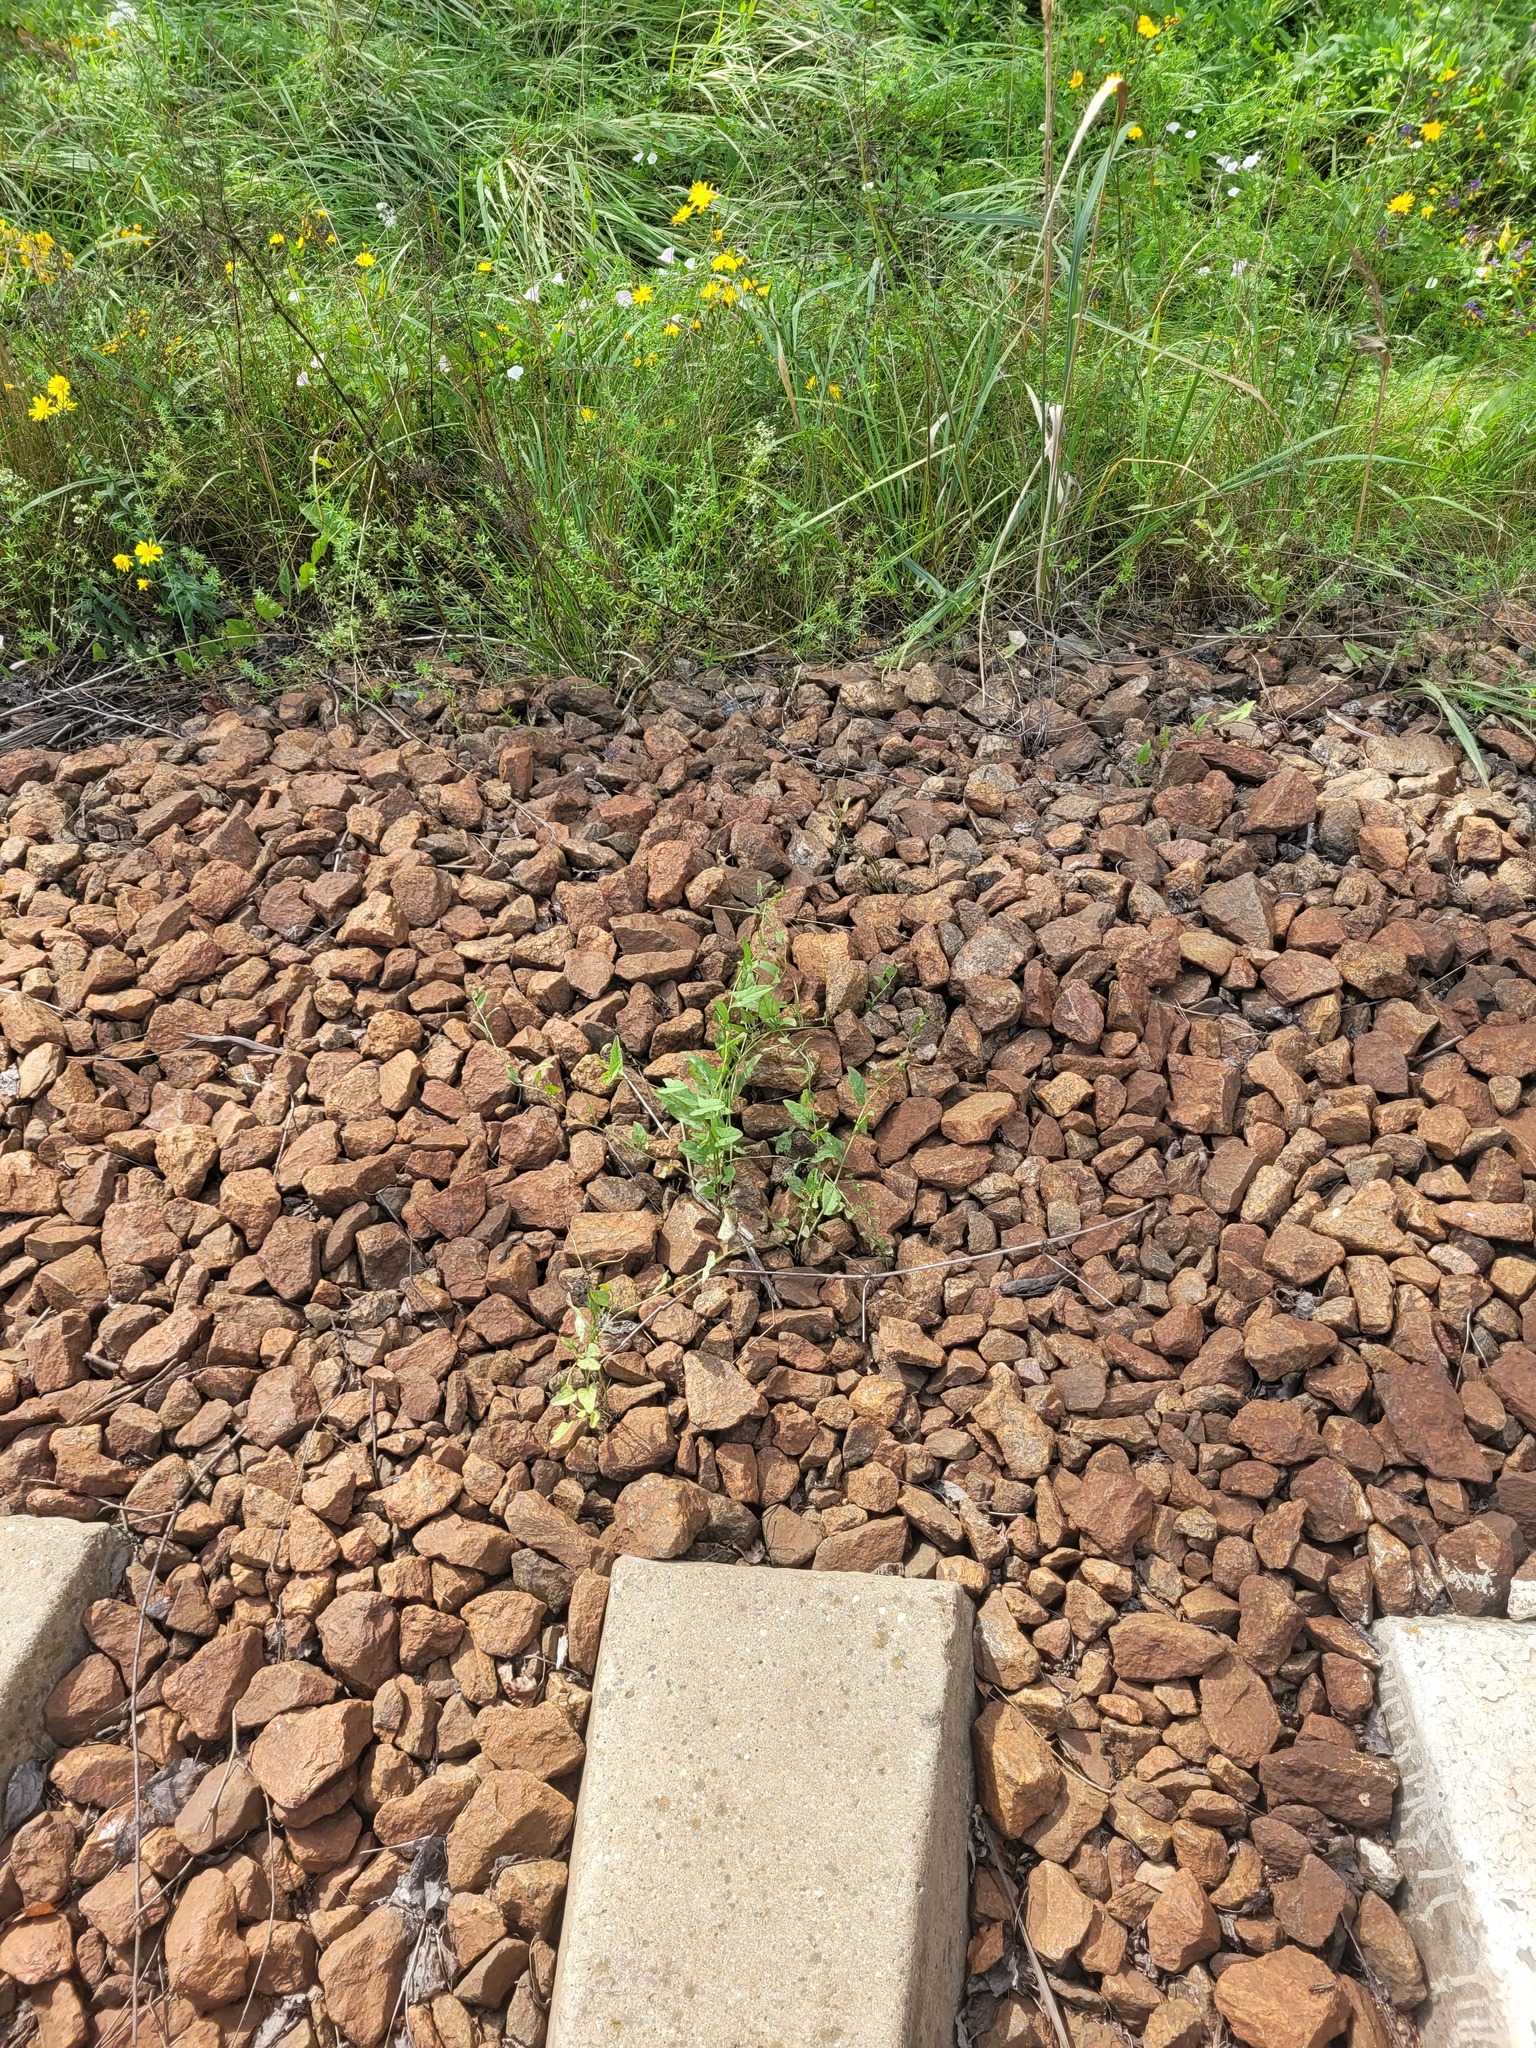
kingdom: Plantae
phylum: Tracheophyta
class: Magnoliopsida
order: Solanales
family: Convolvulaceae
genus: Convolvulus
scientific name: Convolvulus arvensis
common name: Field bindweed
